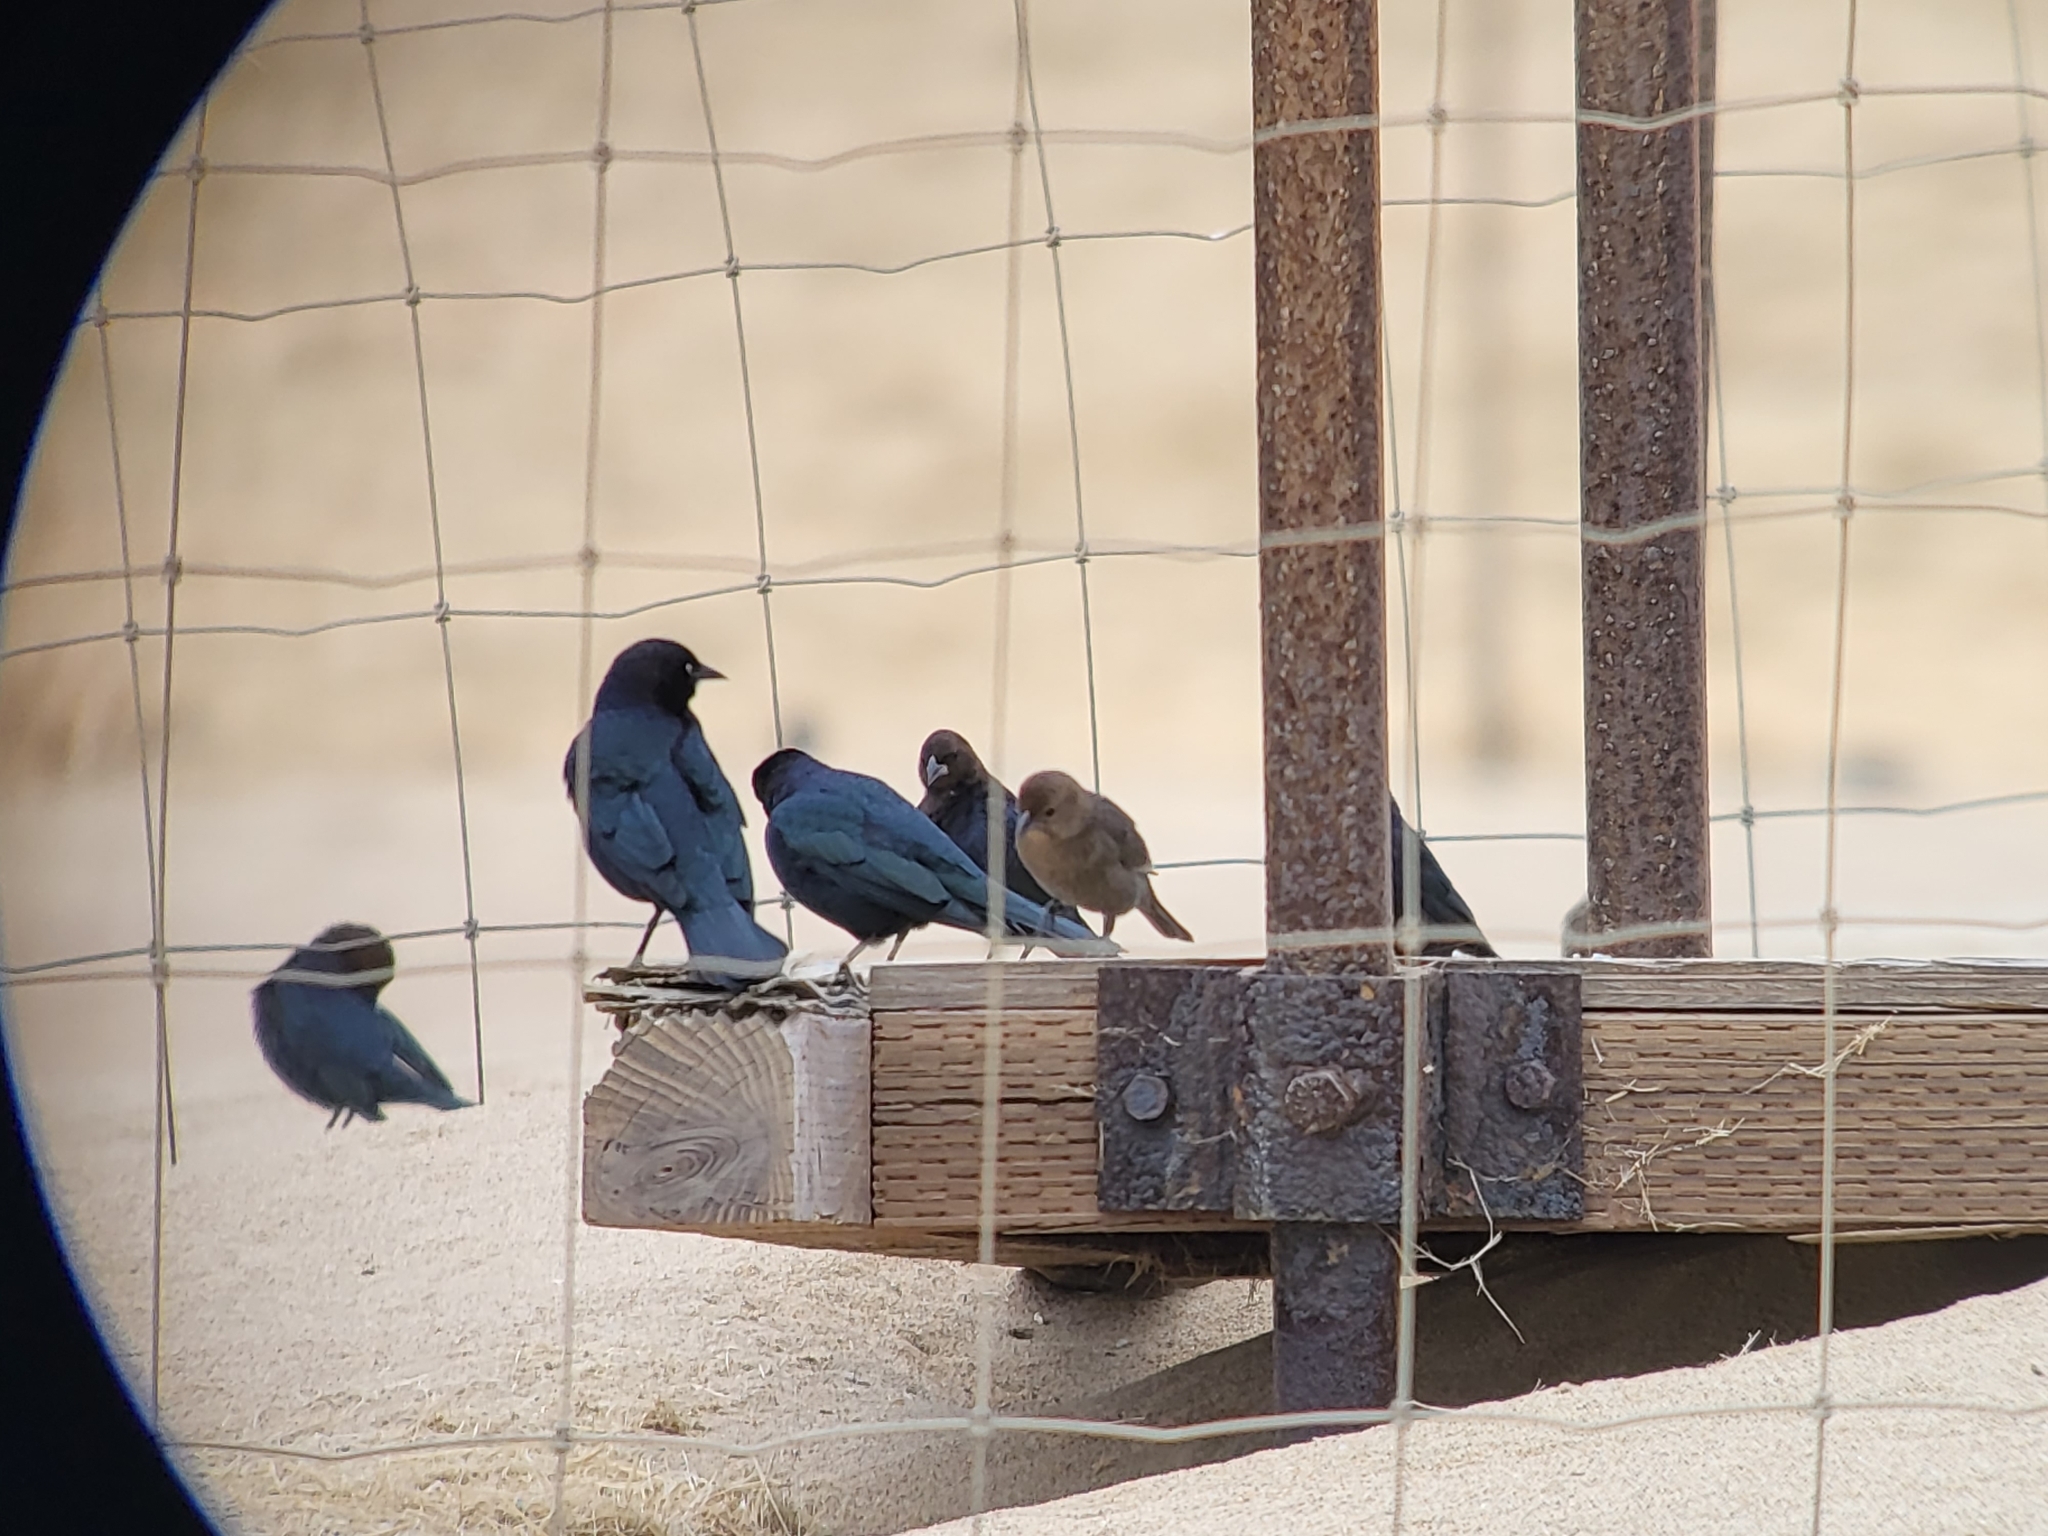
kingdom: Animalia
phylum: Chordata
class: Aves
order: Passeriformes
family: Icteridae
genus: Euphagus
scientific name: Euphagus cyanocephalus
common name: Brewer's blackbird
